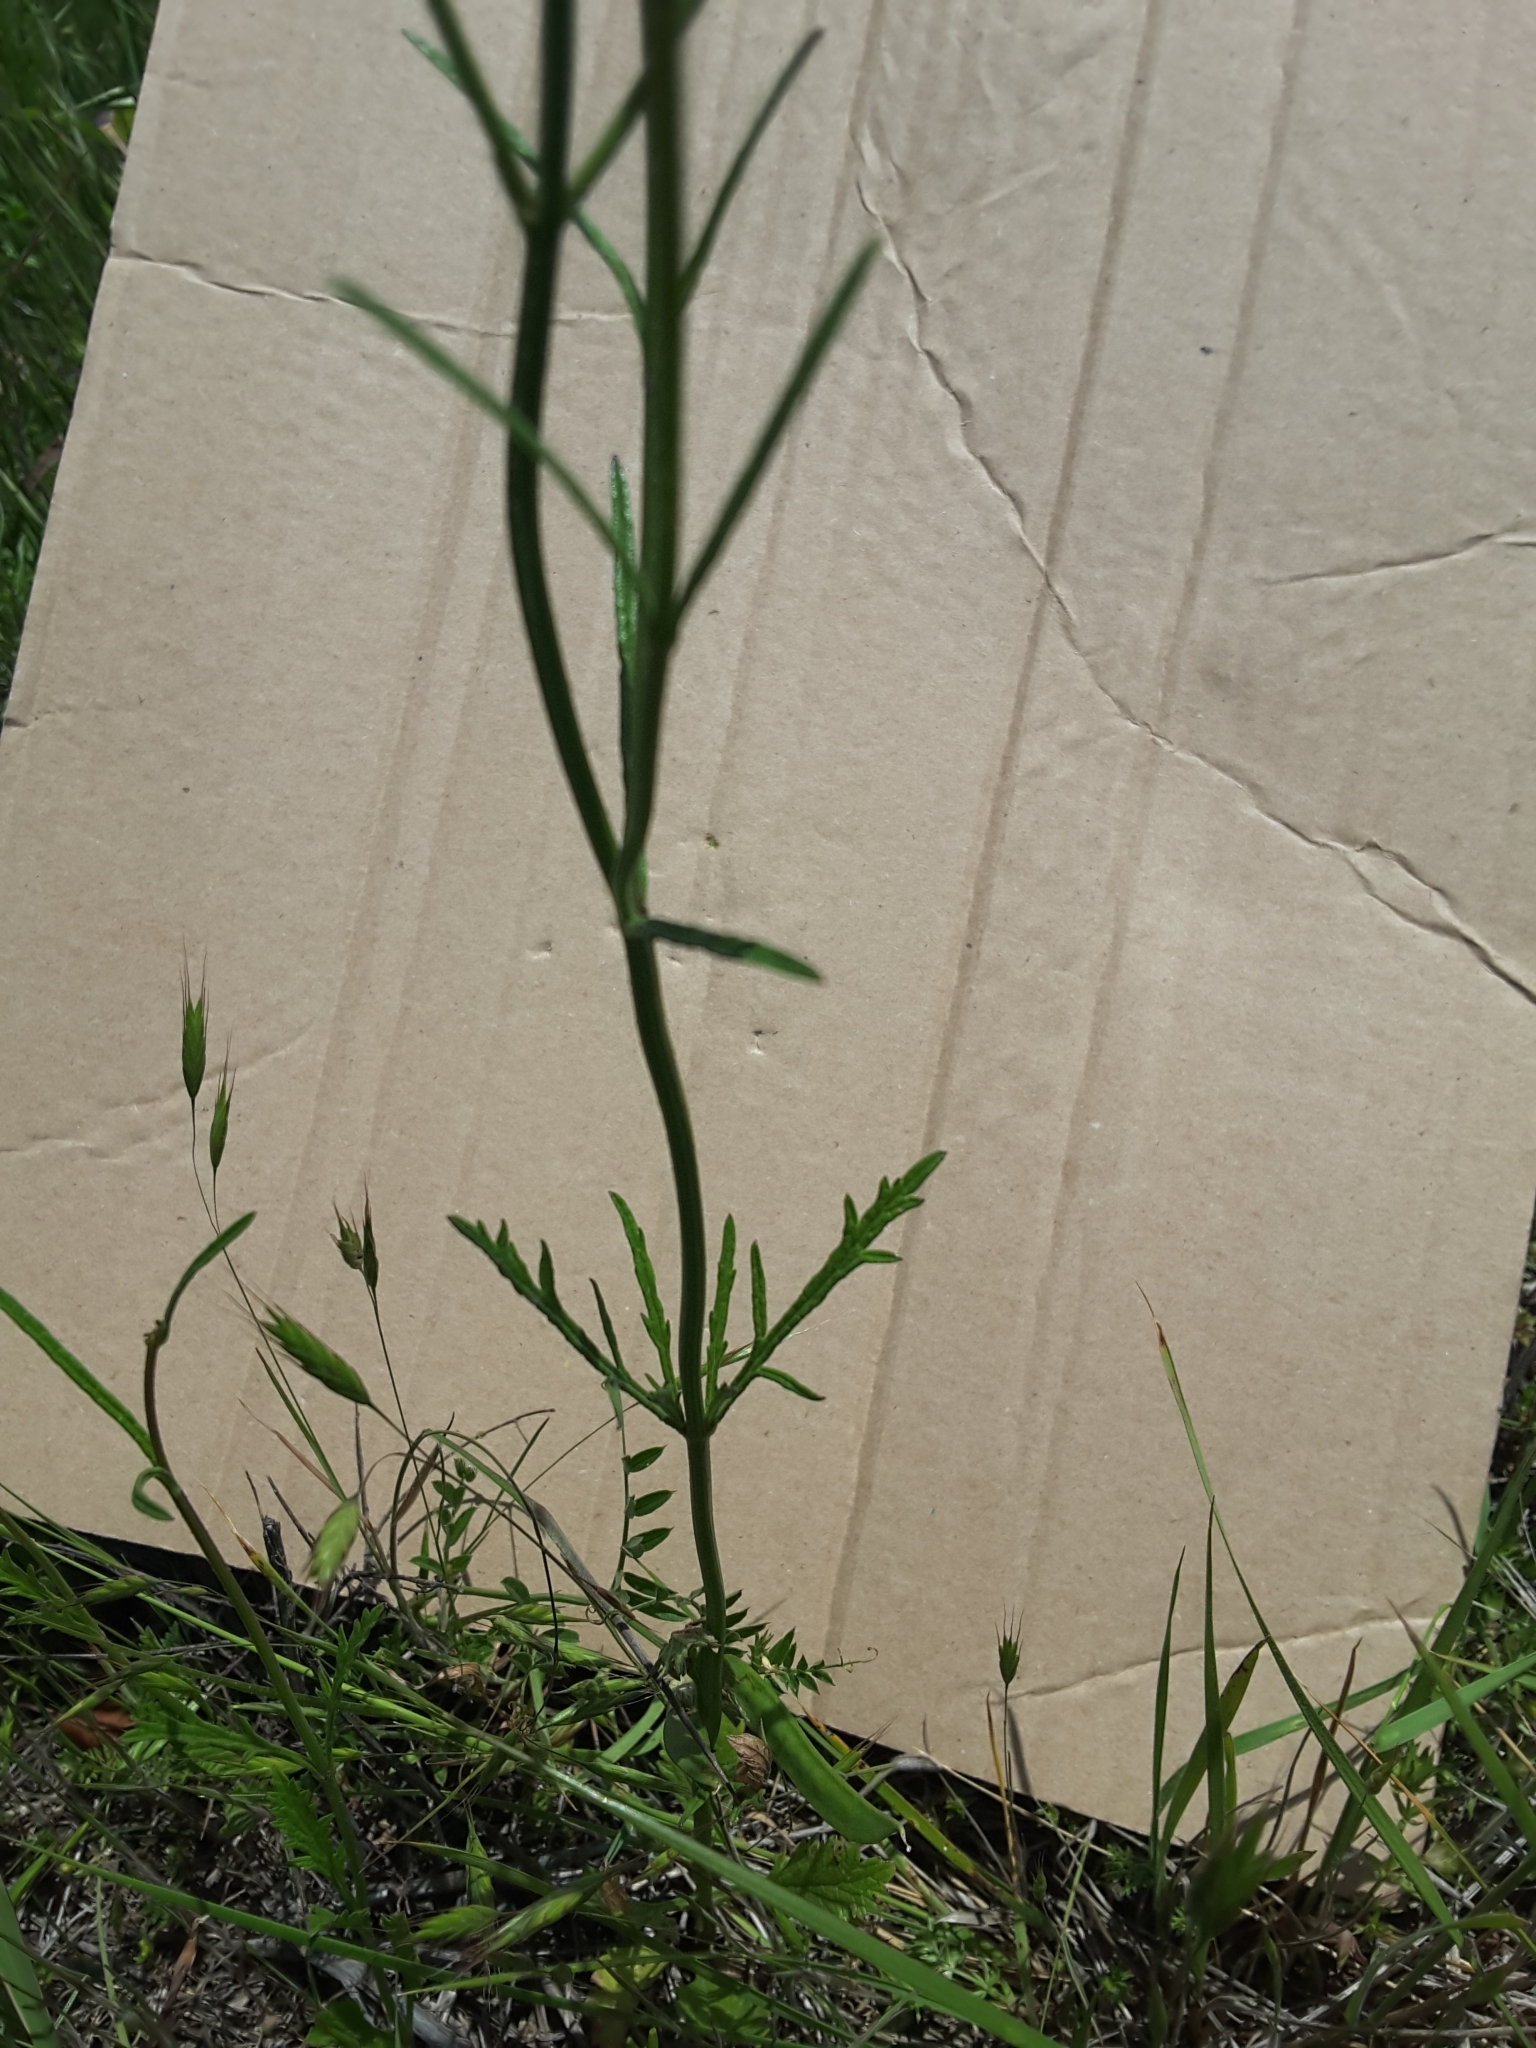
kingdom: Plantae
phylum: Tracheophyta
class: Magnoliopsida
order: Lamiales
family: Verbenaceae
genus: Verbena
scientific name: Verbena halei
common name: Texas vervain
